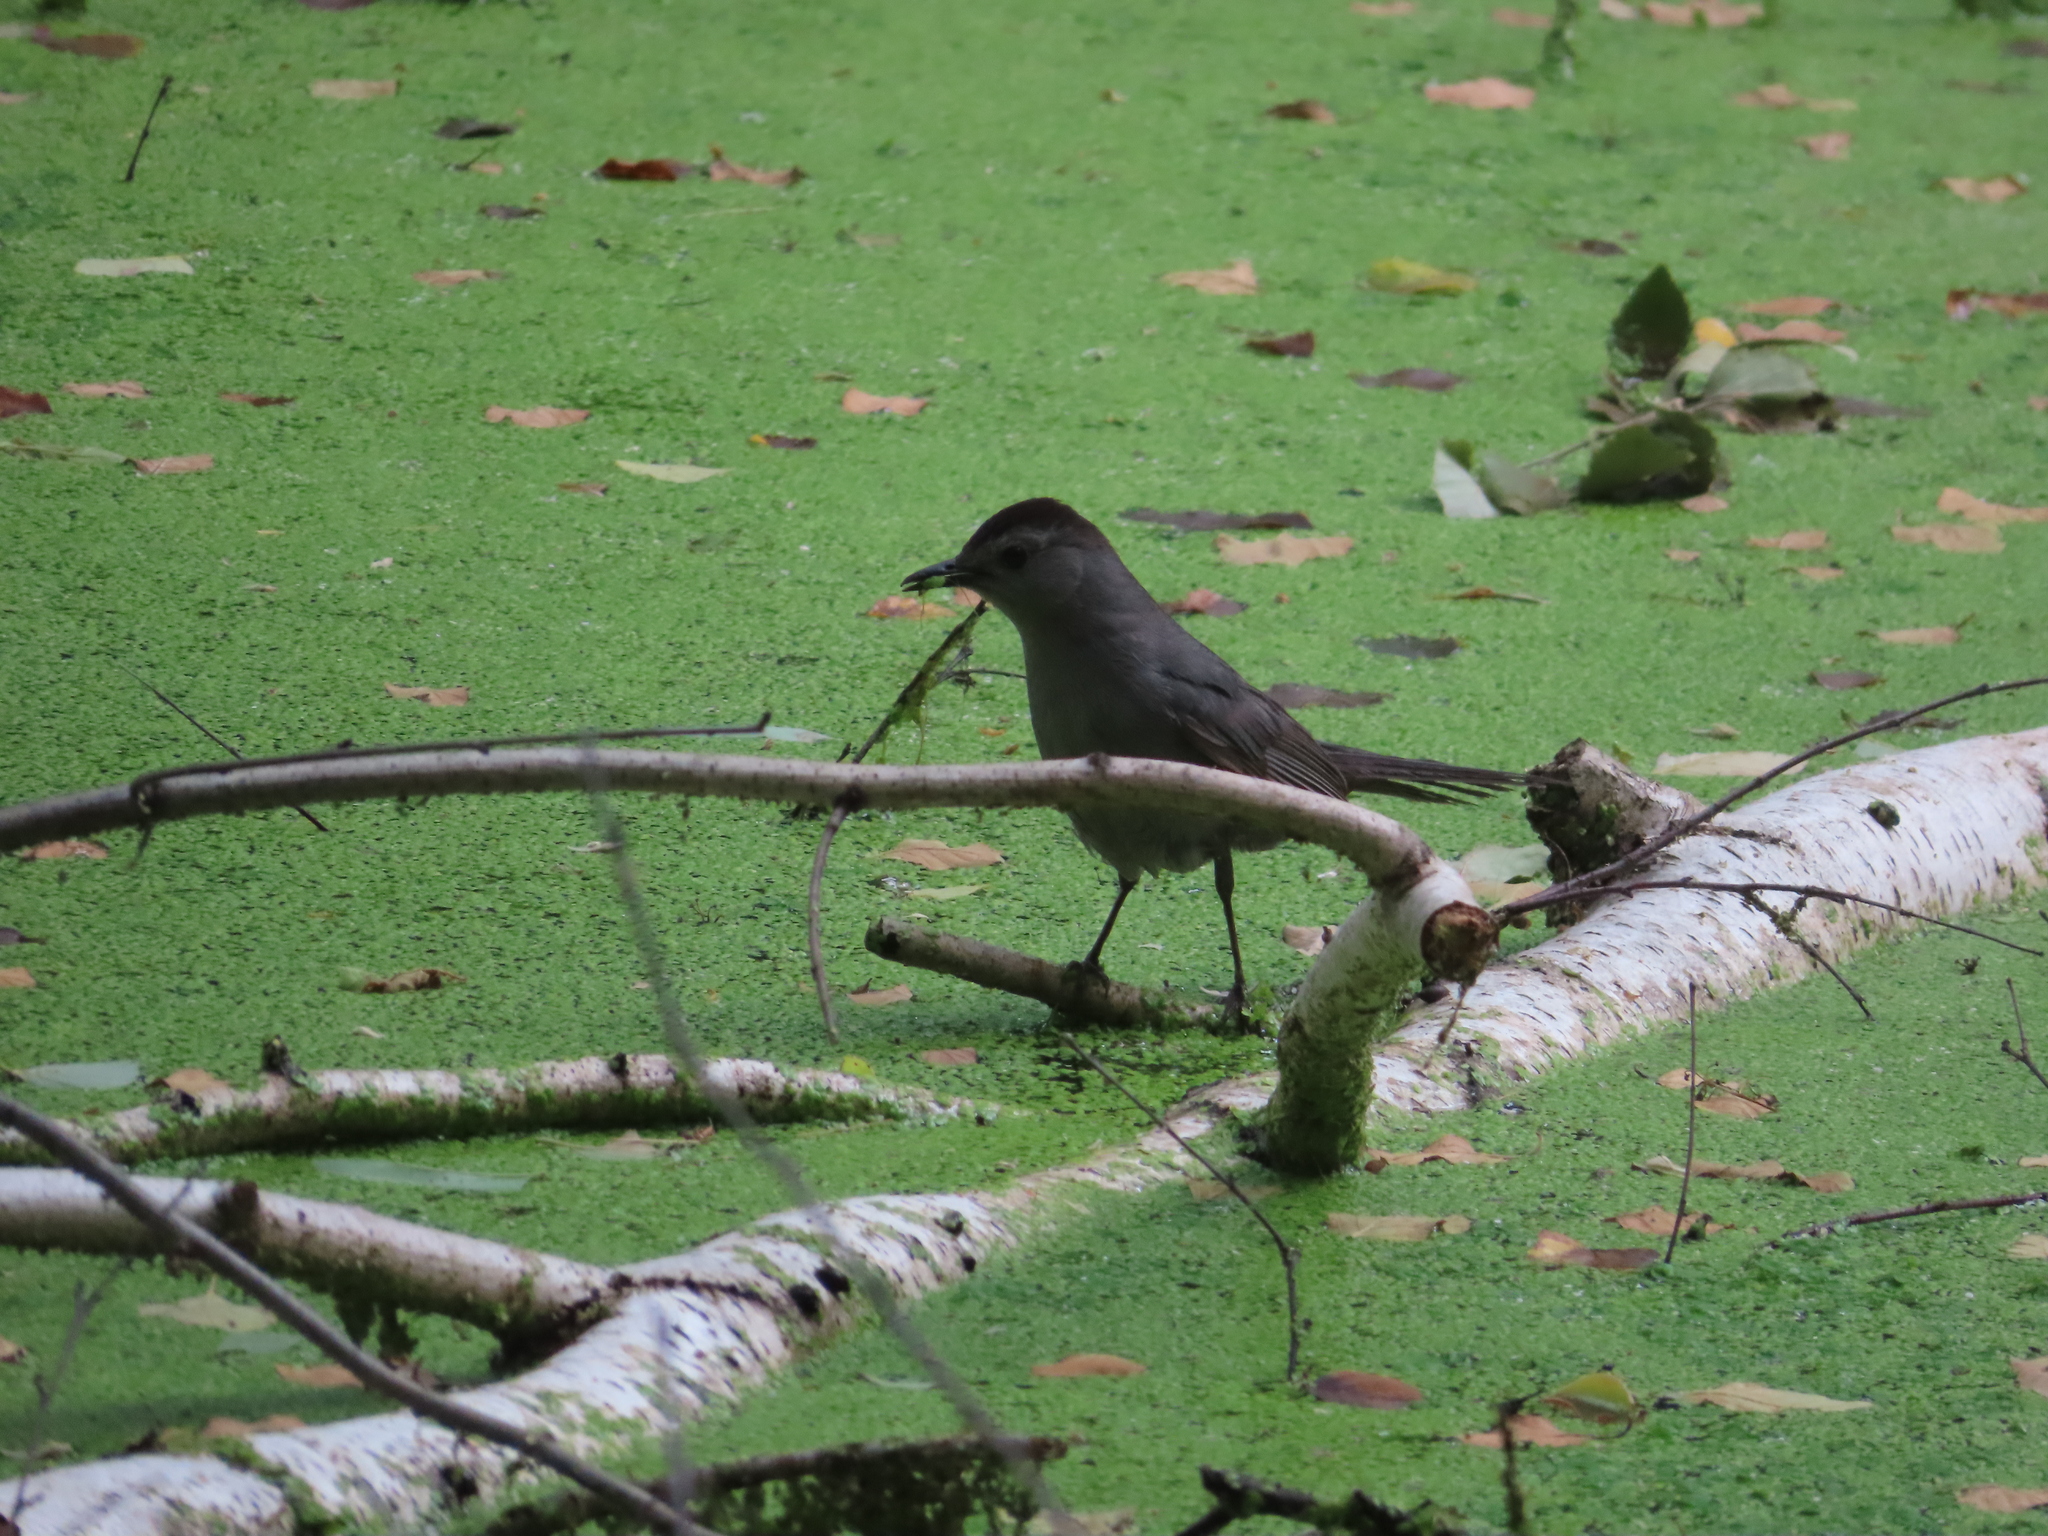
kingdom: Animalia
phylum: Chordata
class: Aves
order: Passeriformes
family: Mimidae
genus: Dumetella
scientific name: Dumetella carolinensis
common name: Gray catbird
